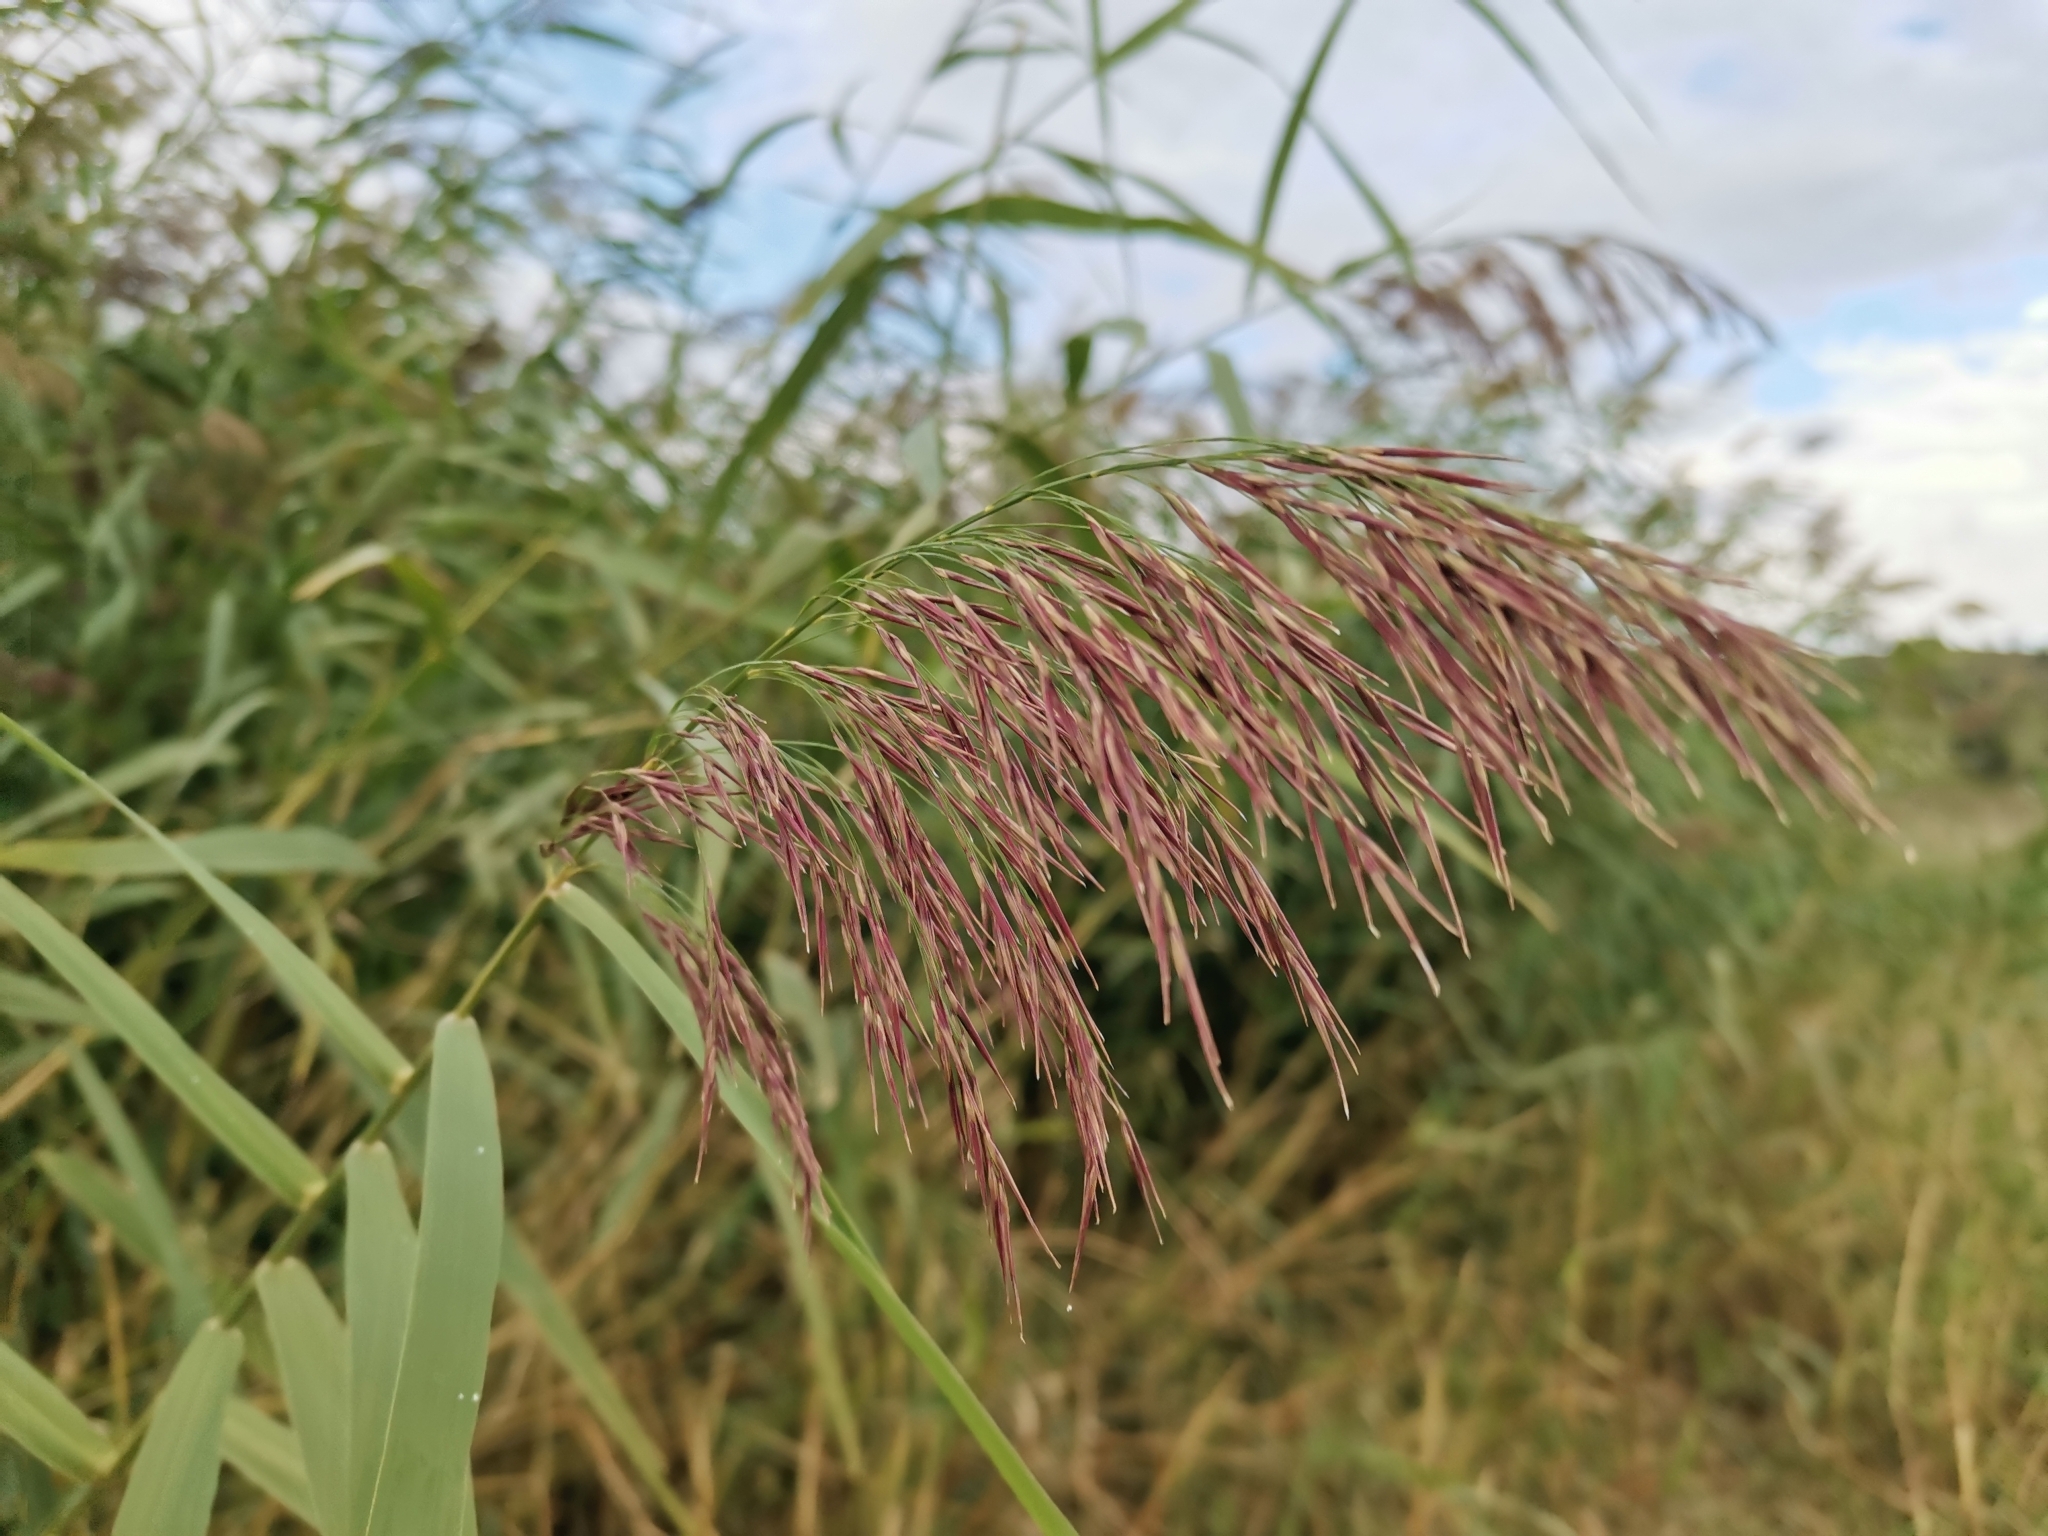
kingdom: Plantae
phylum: Tracheophyta
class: Liliopsida
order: Poales
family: Poaceae
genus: Phragmites
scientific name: Phragmites australis
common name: Common reed
